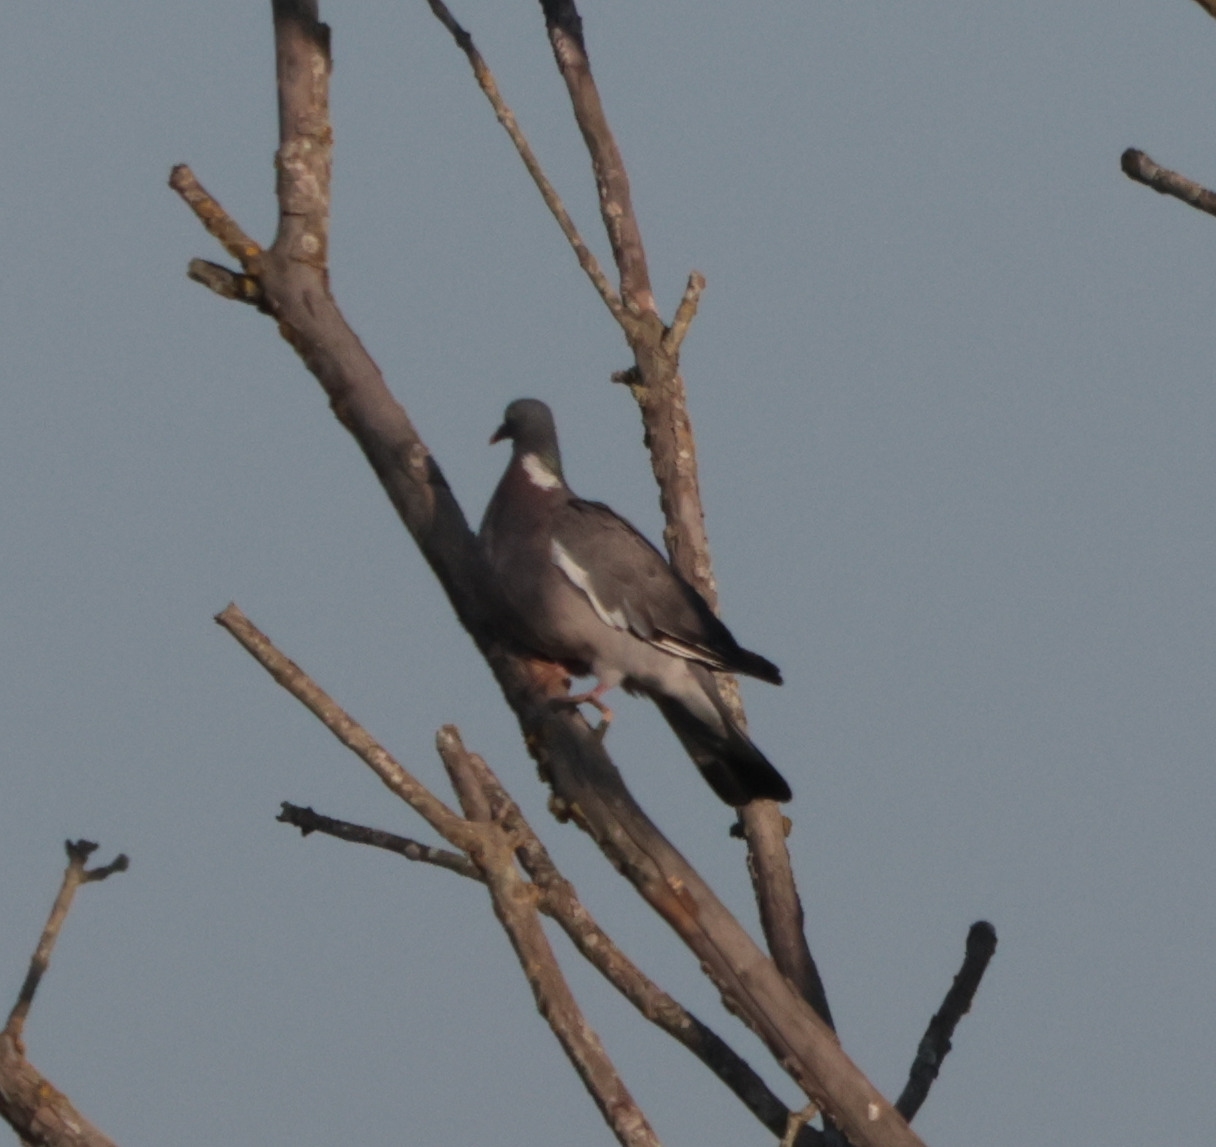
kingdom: Animalia
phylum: Chordata
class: Aves
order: Columbiformes
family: Columbidae
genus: Columba
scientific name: Columba palumbus
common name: Common wood pigeon
